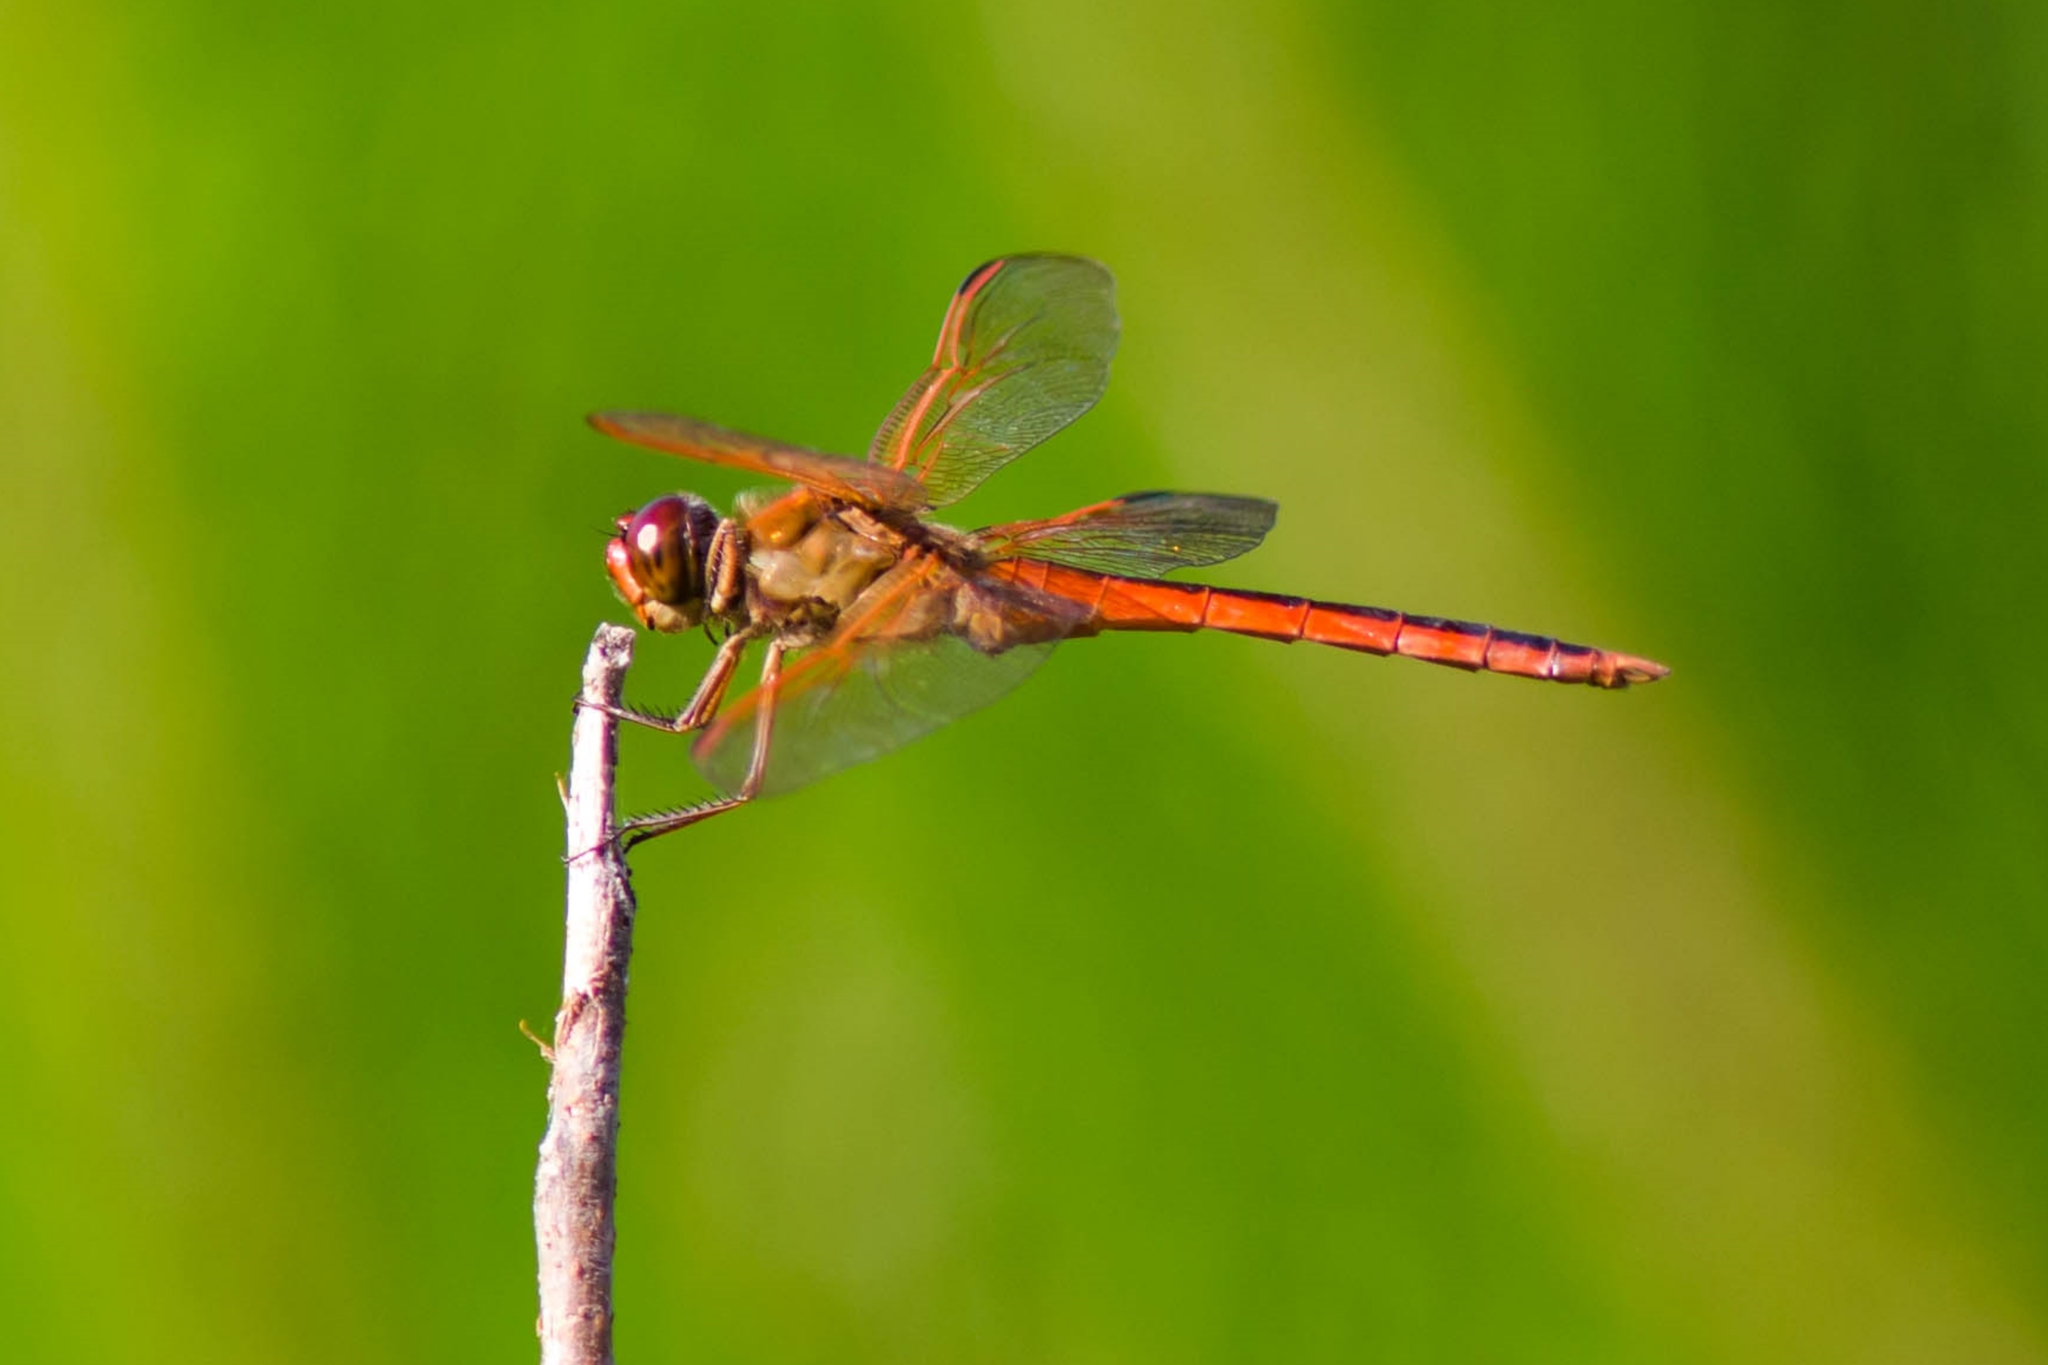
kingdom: Animalia
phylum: Arthropoda
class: Insecta
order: Odonata
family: Libellulidae
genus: Libellula
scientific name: Libellula needhami
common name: Needham's skimmer
